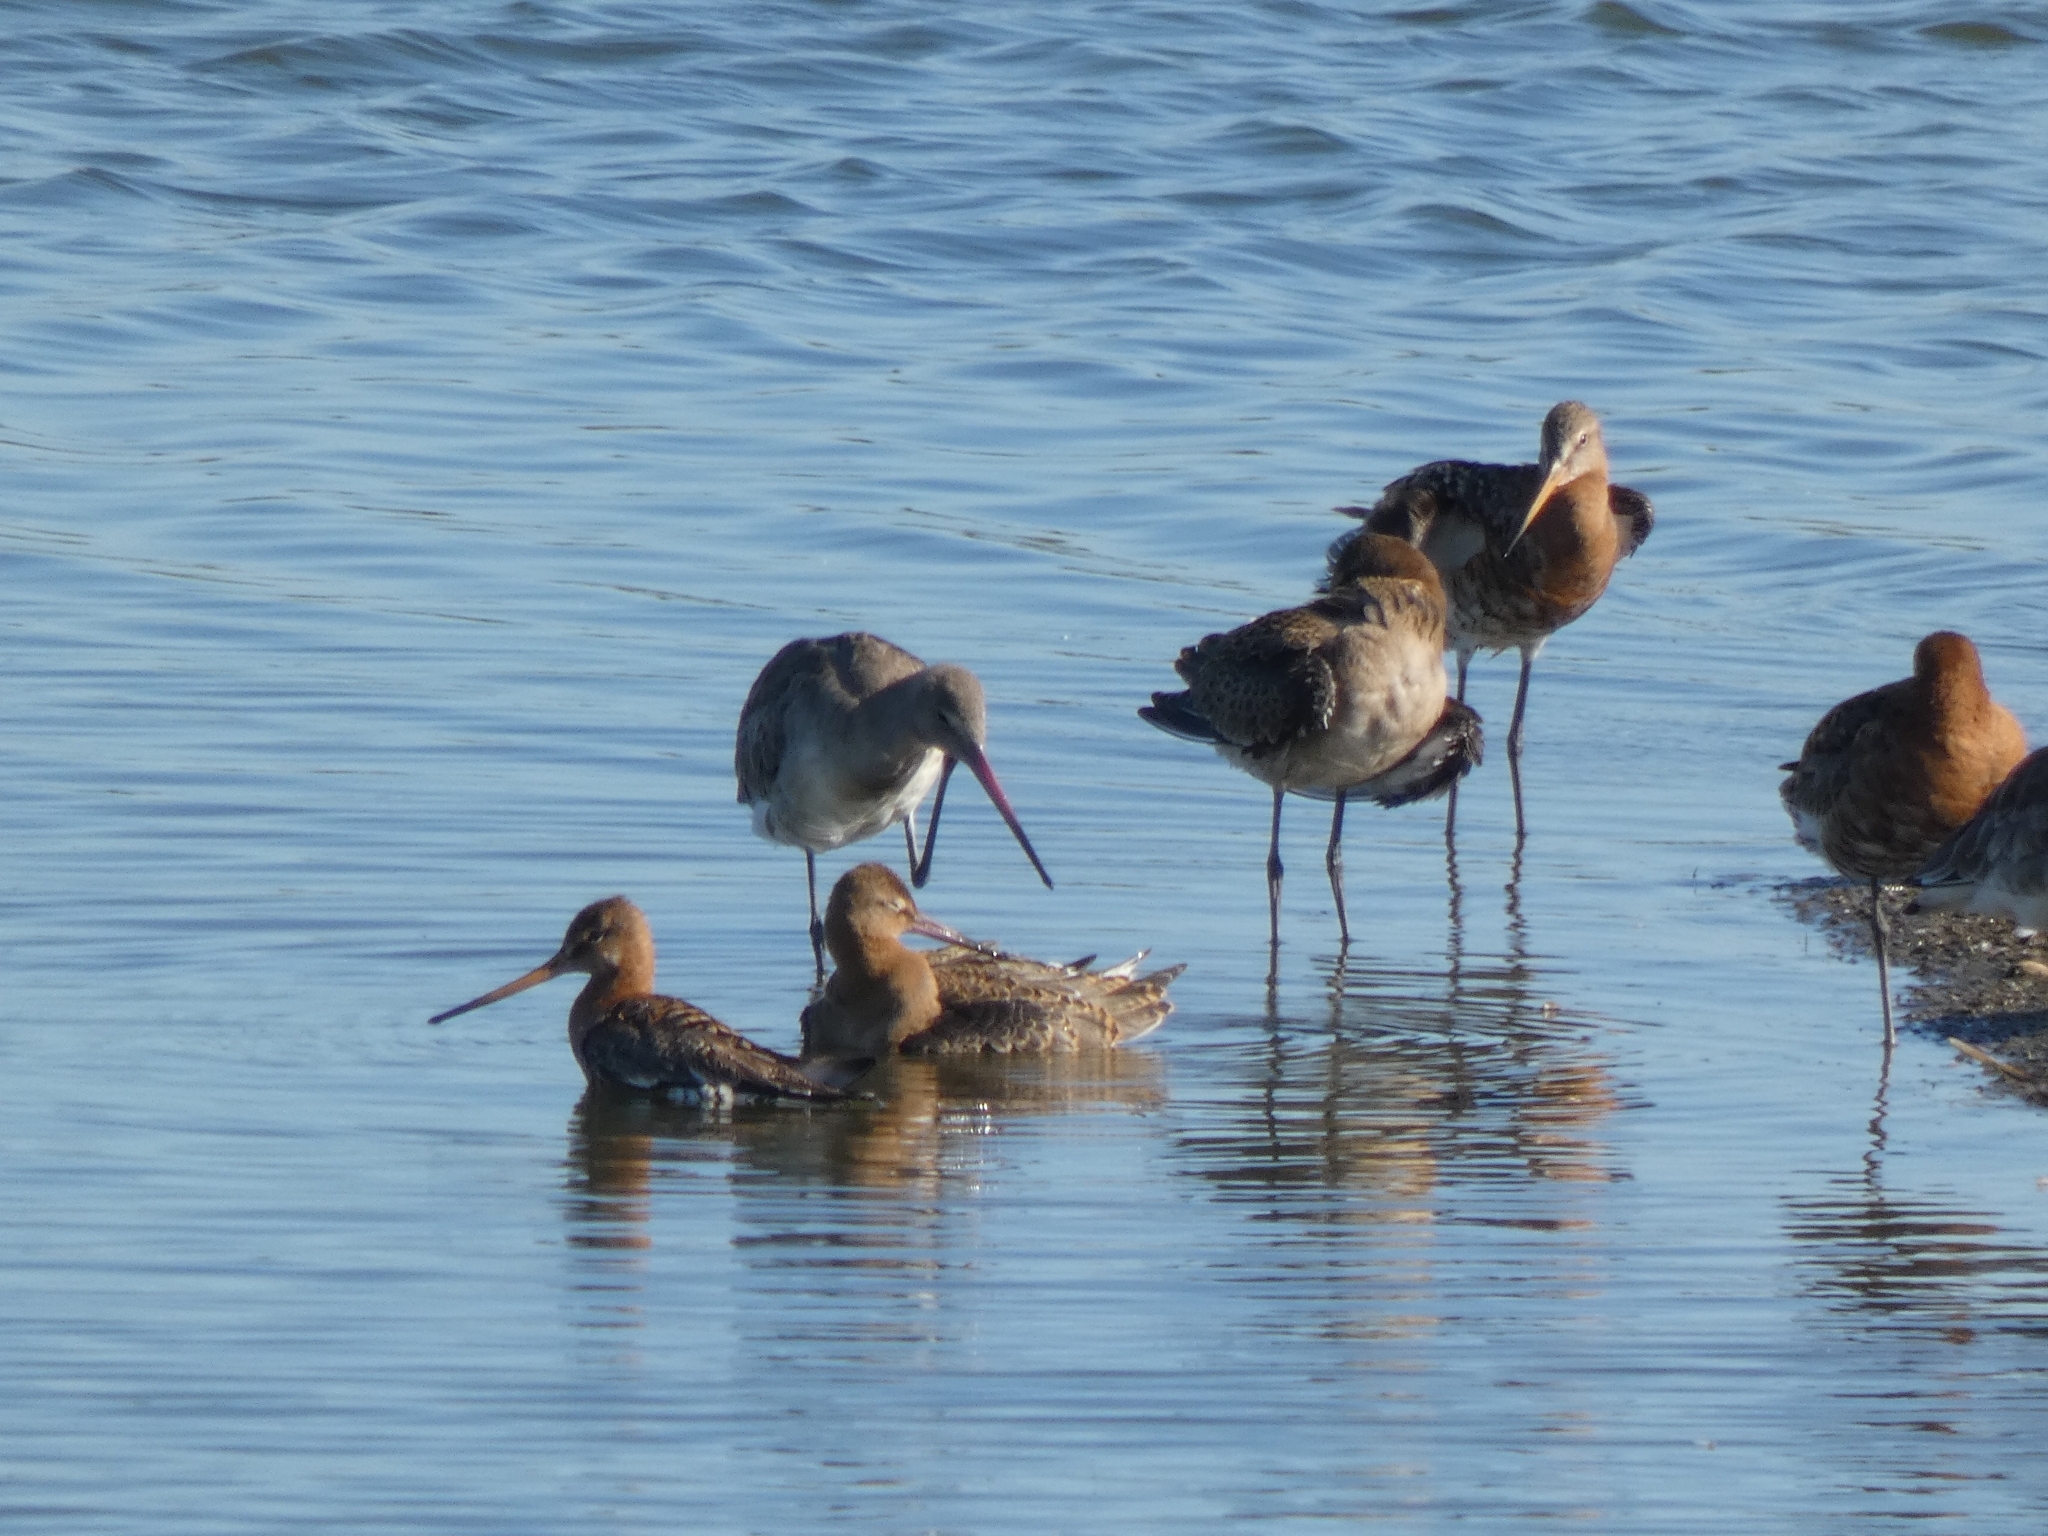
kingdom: Animalia
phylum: Chordata
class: Aves
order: Charadriiformes
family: Scolopacidae
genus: Limosa
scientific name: Limosa limosa
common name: Black-tailed godwit
